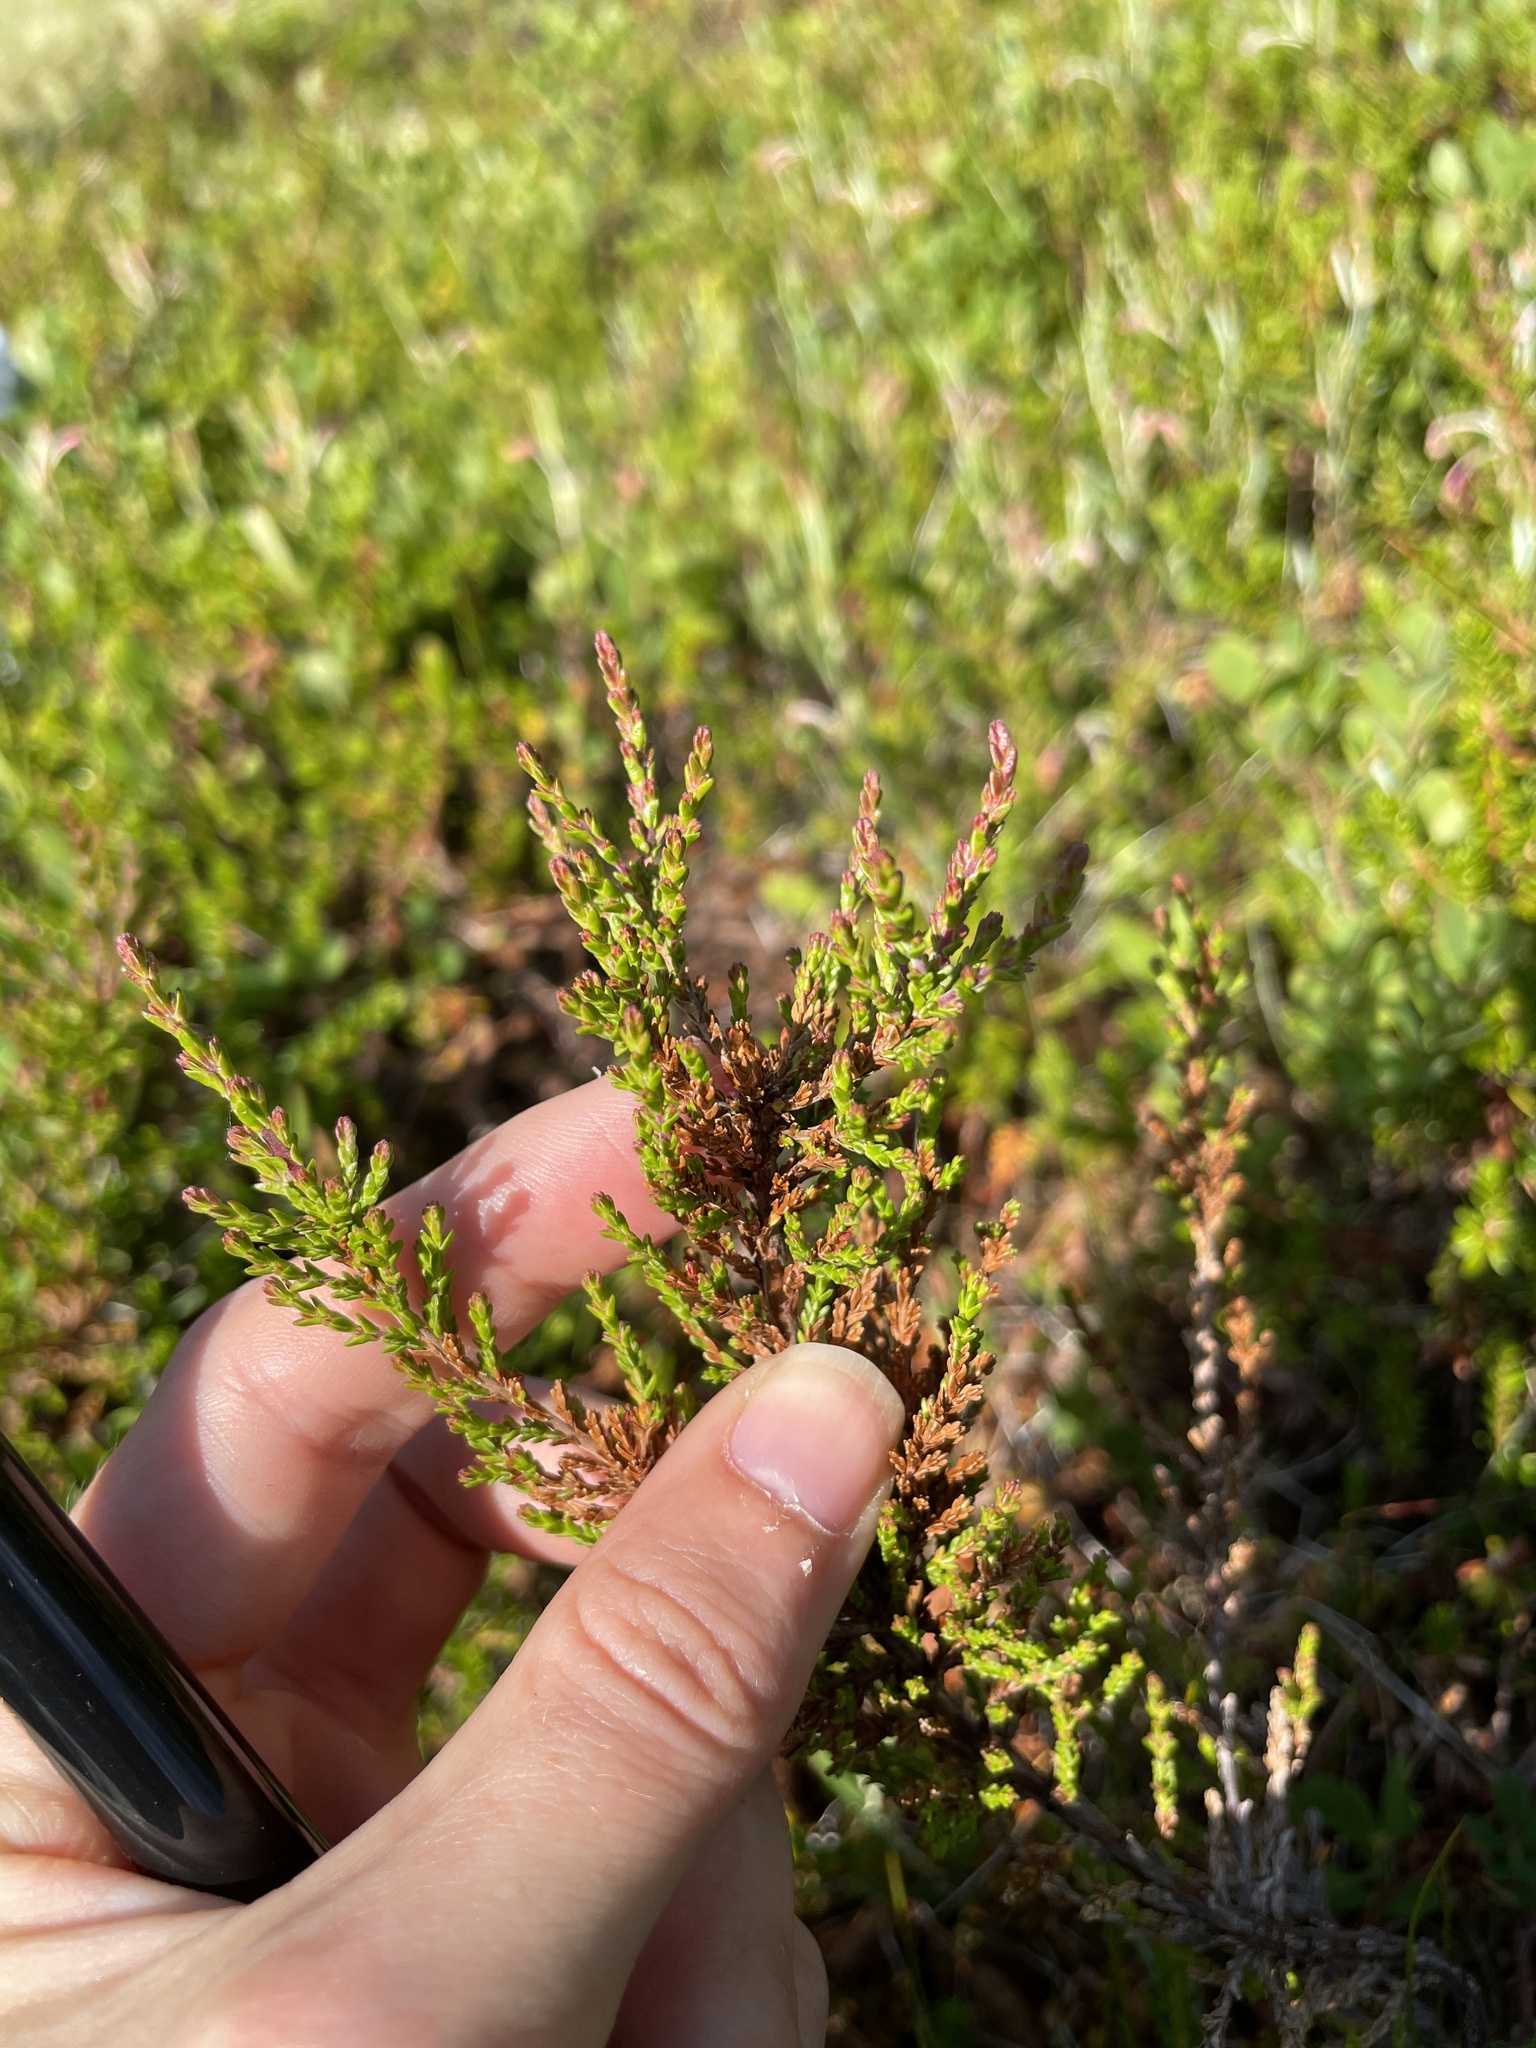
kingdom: Plantae
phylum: Tracheophyta
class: Magnoliopsida
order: Ericales
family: Ericaceae
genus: Calluna
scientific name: Calluna vulgaris
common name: Heather
